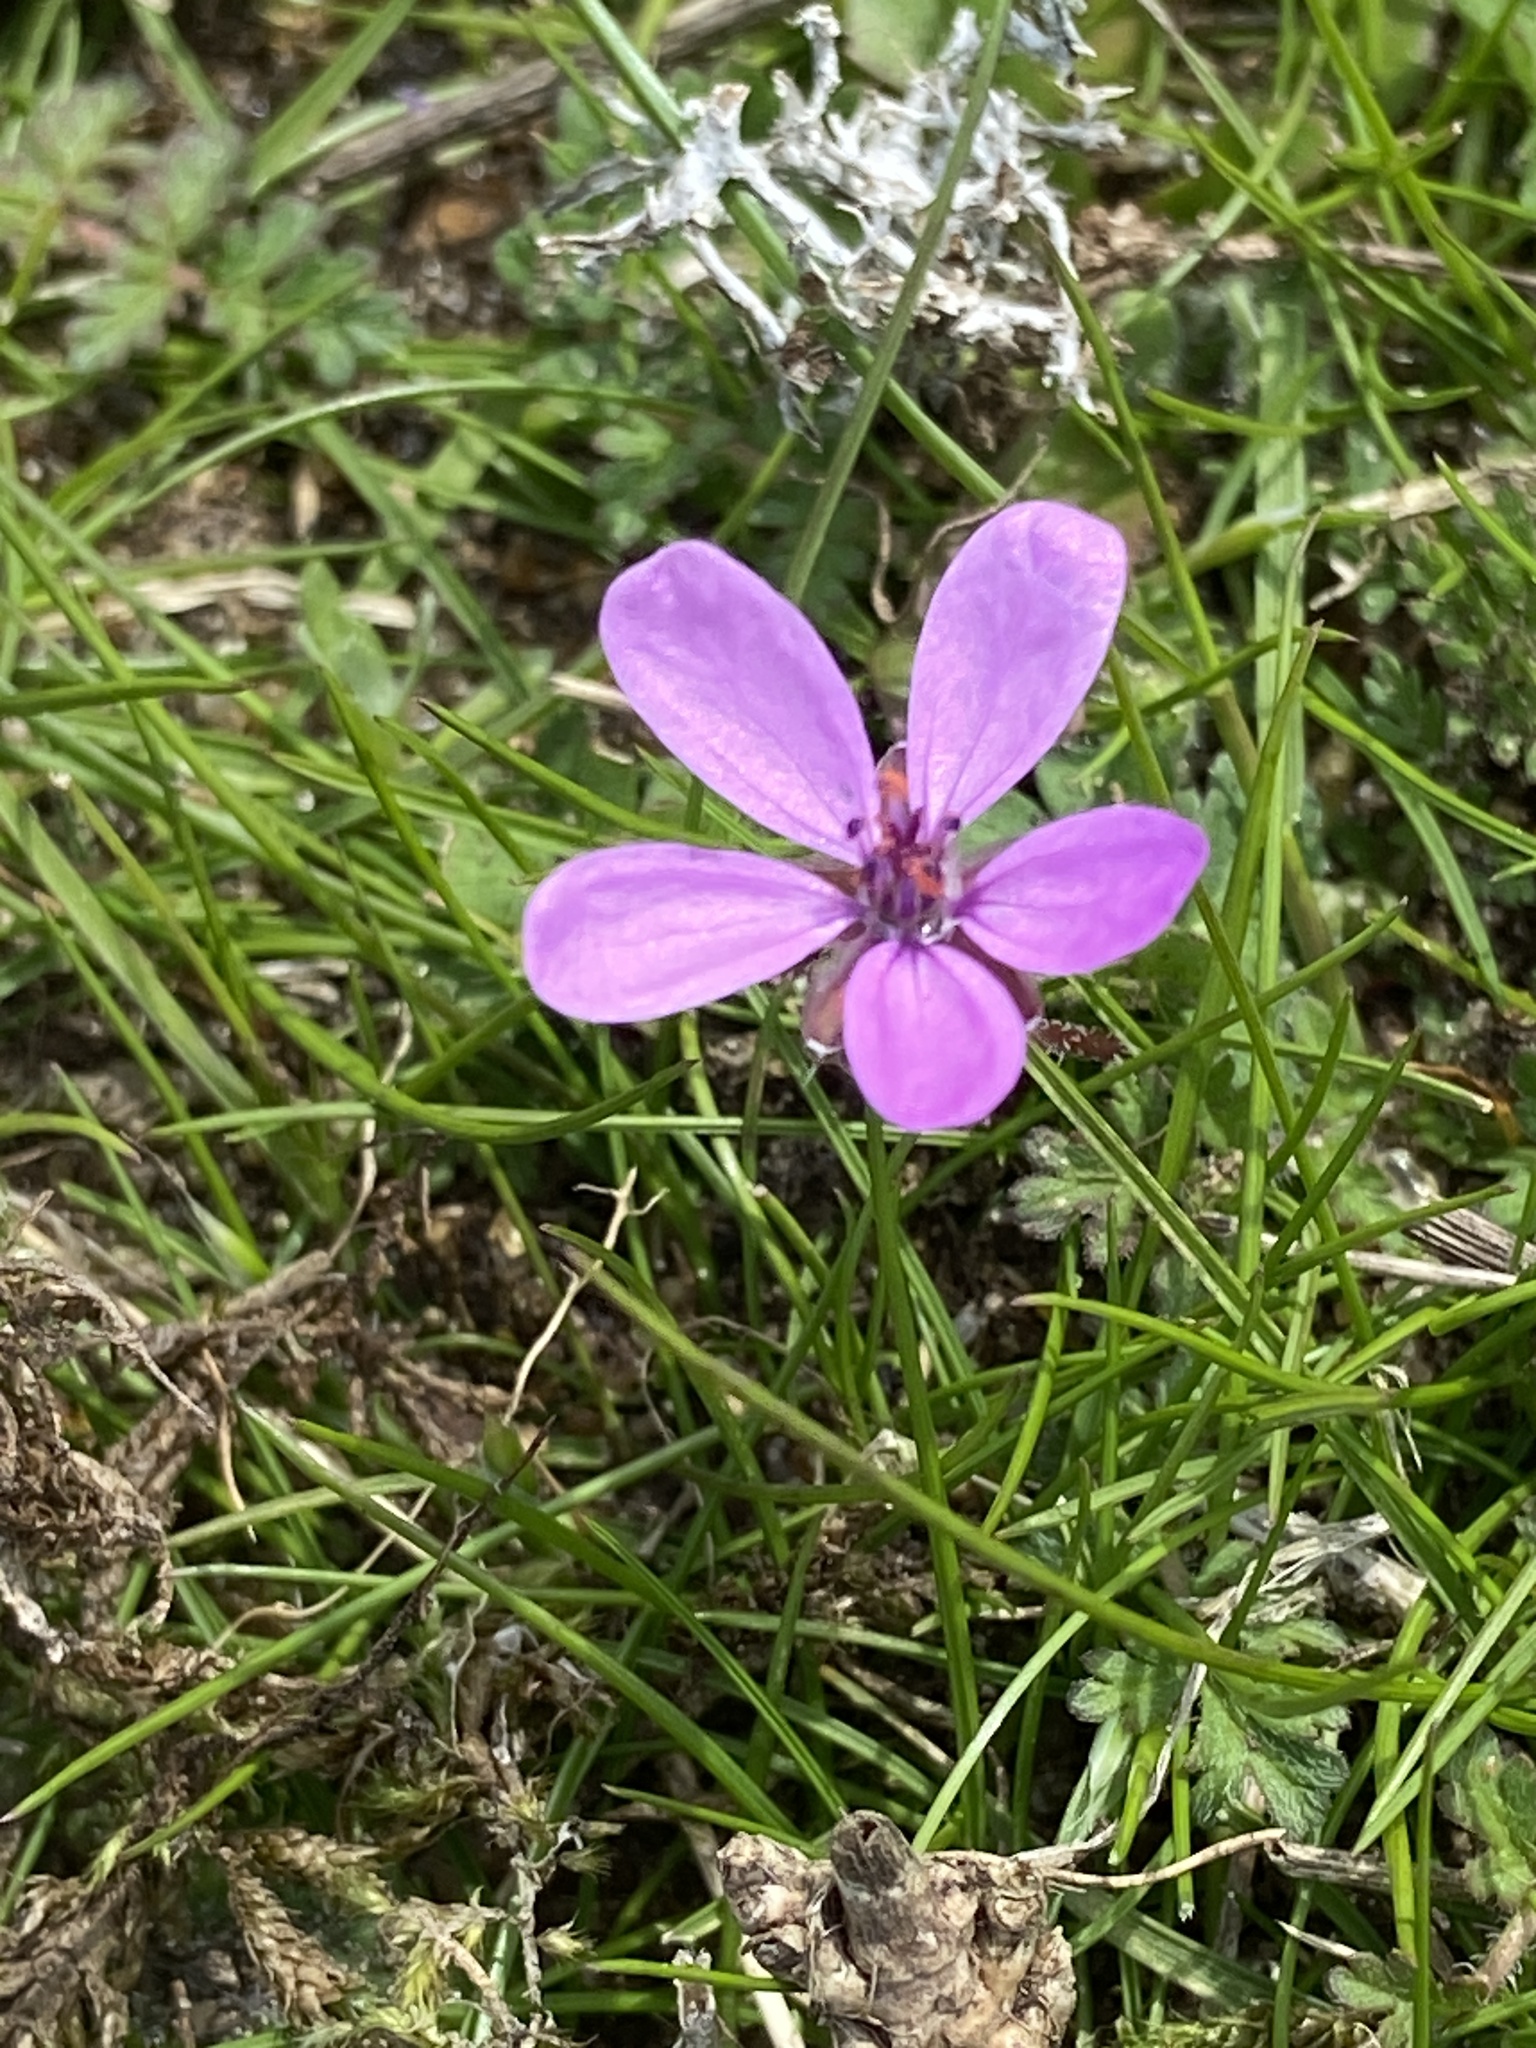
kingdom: Plantae
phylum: Tracheophyta
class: Magnoliopsida
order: Geraniales
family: Geraniaceae
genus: Erodium
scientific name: Erodium cicutarium
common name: Common stork's-bill
